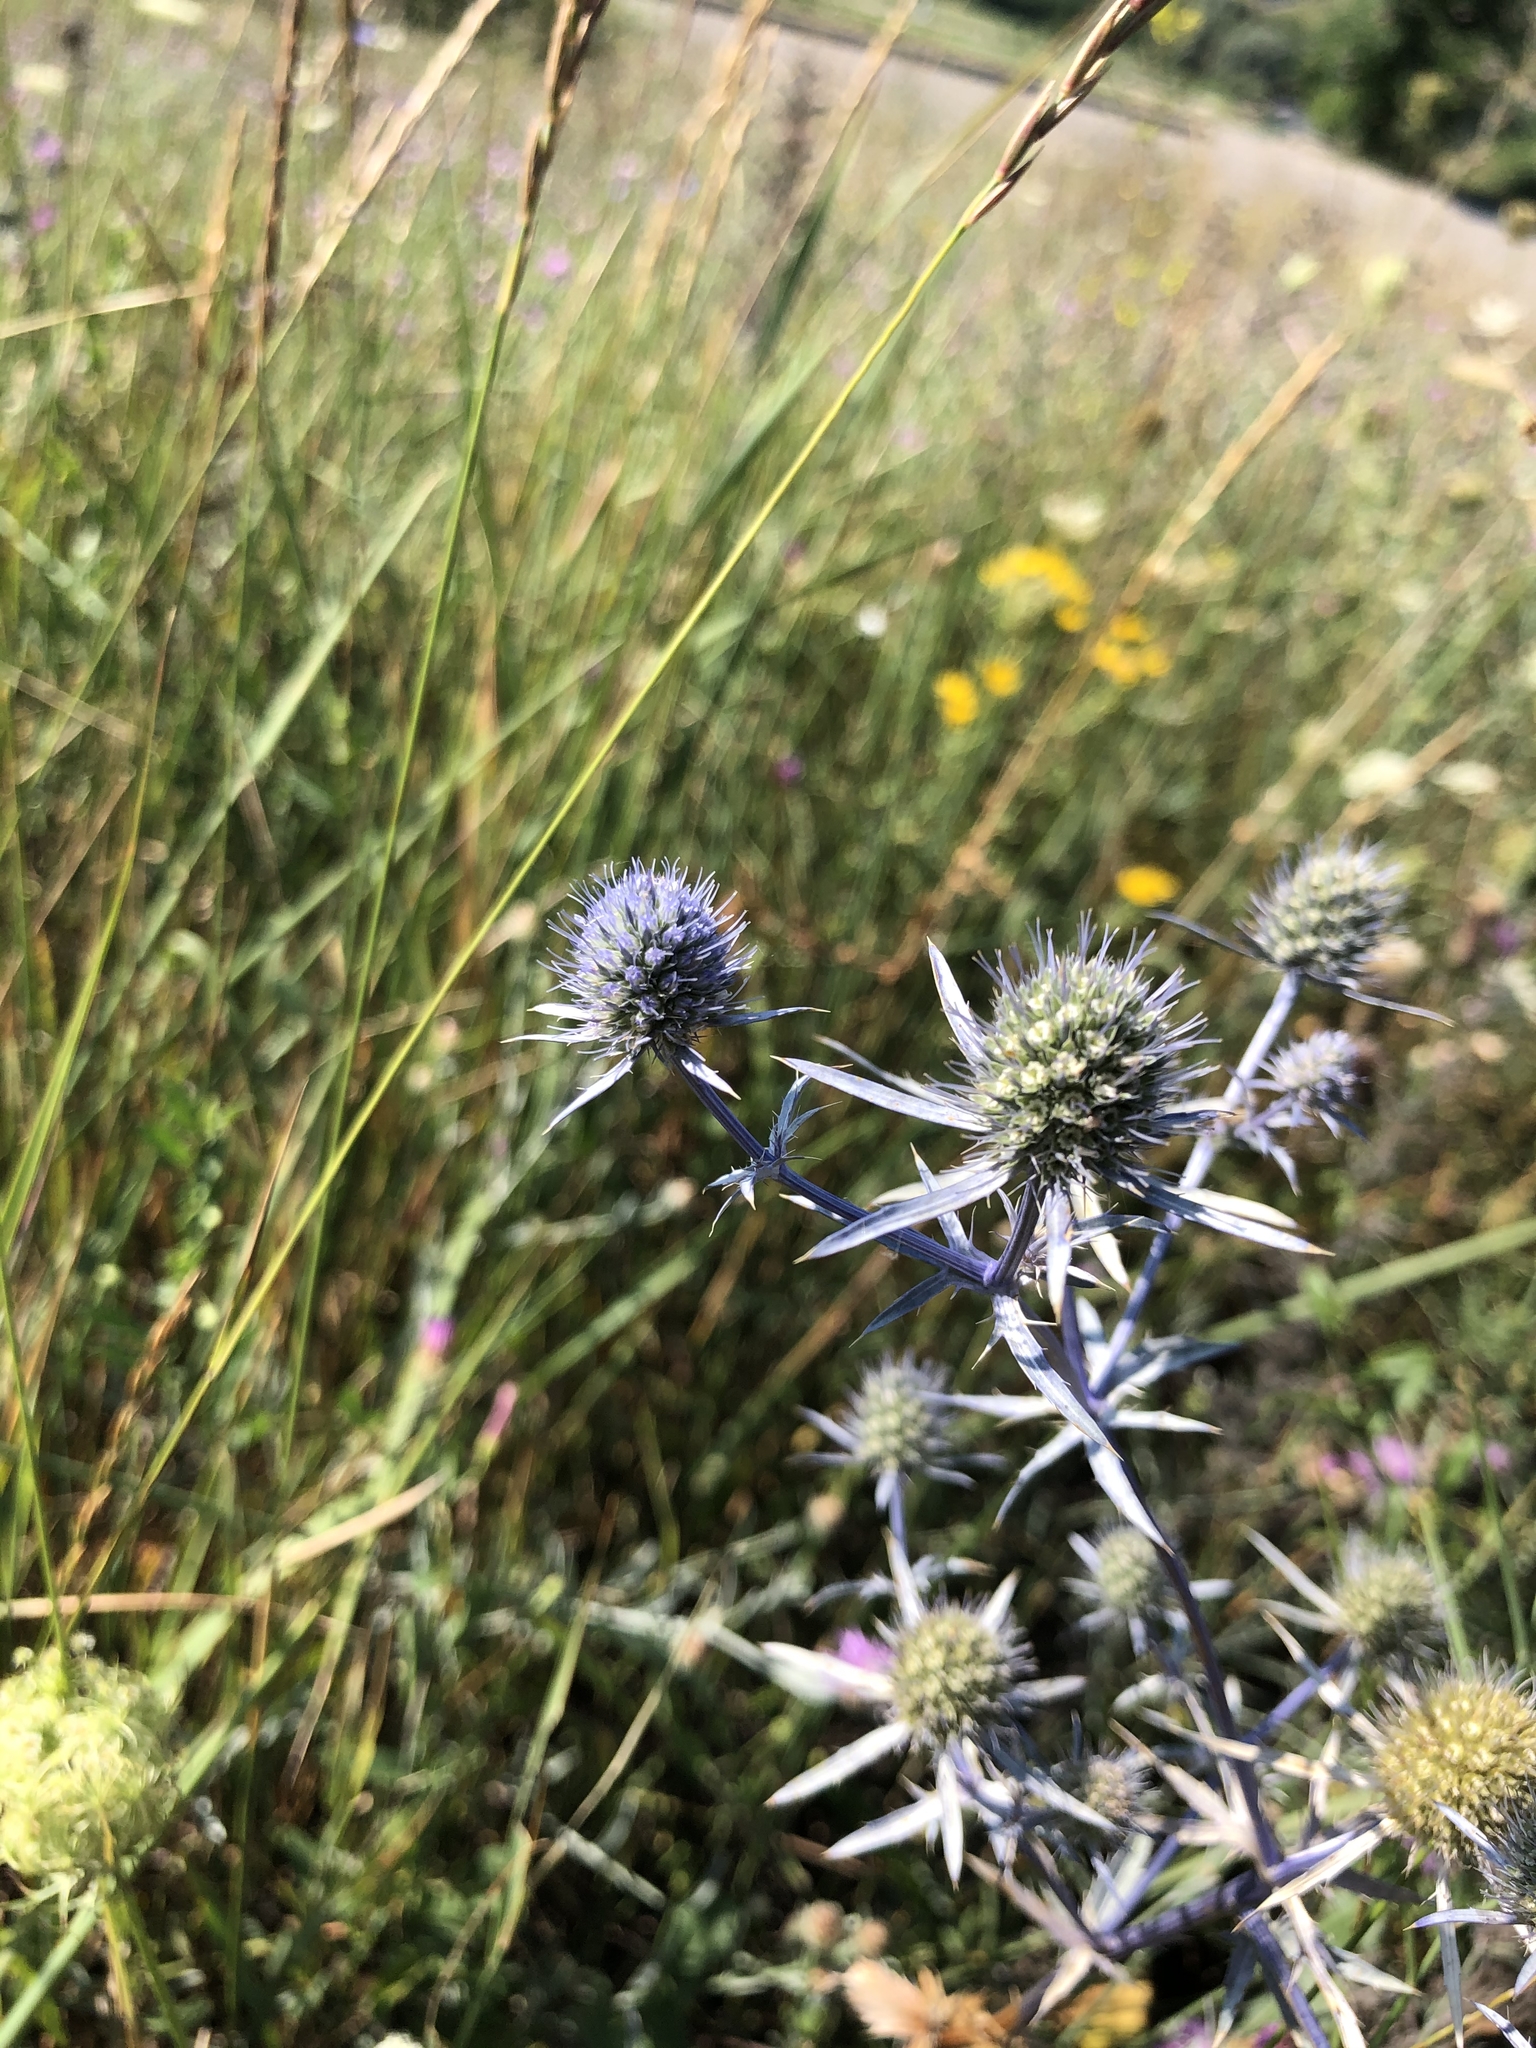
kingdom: Plantae
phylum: Tracheophyta
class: Magnoliopsida
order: Apiales
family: Apiaceae
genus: Eryngium
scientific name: Eryngium planum
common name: Blue eryngo
